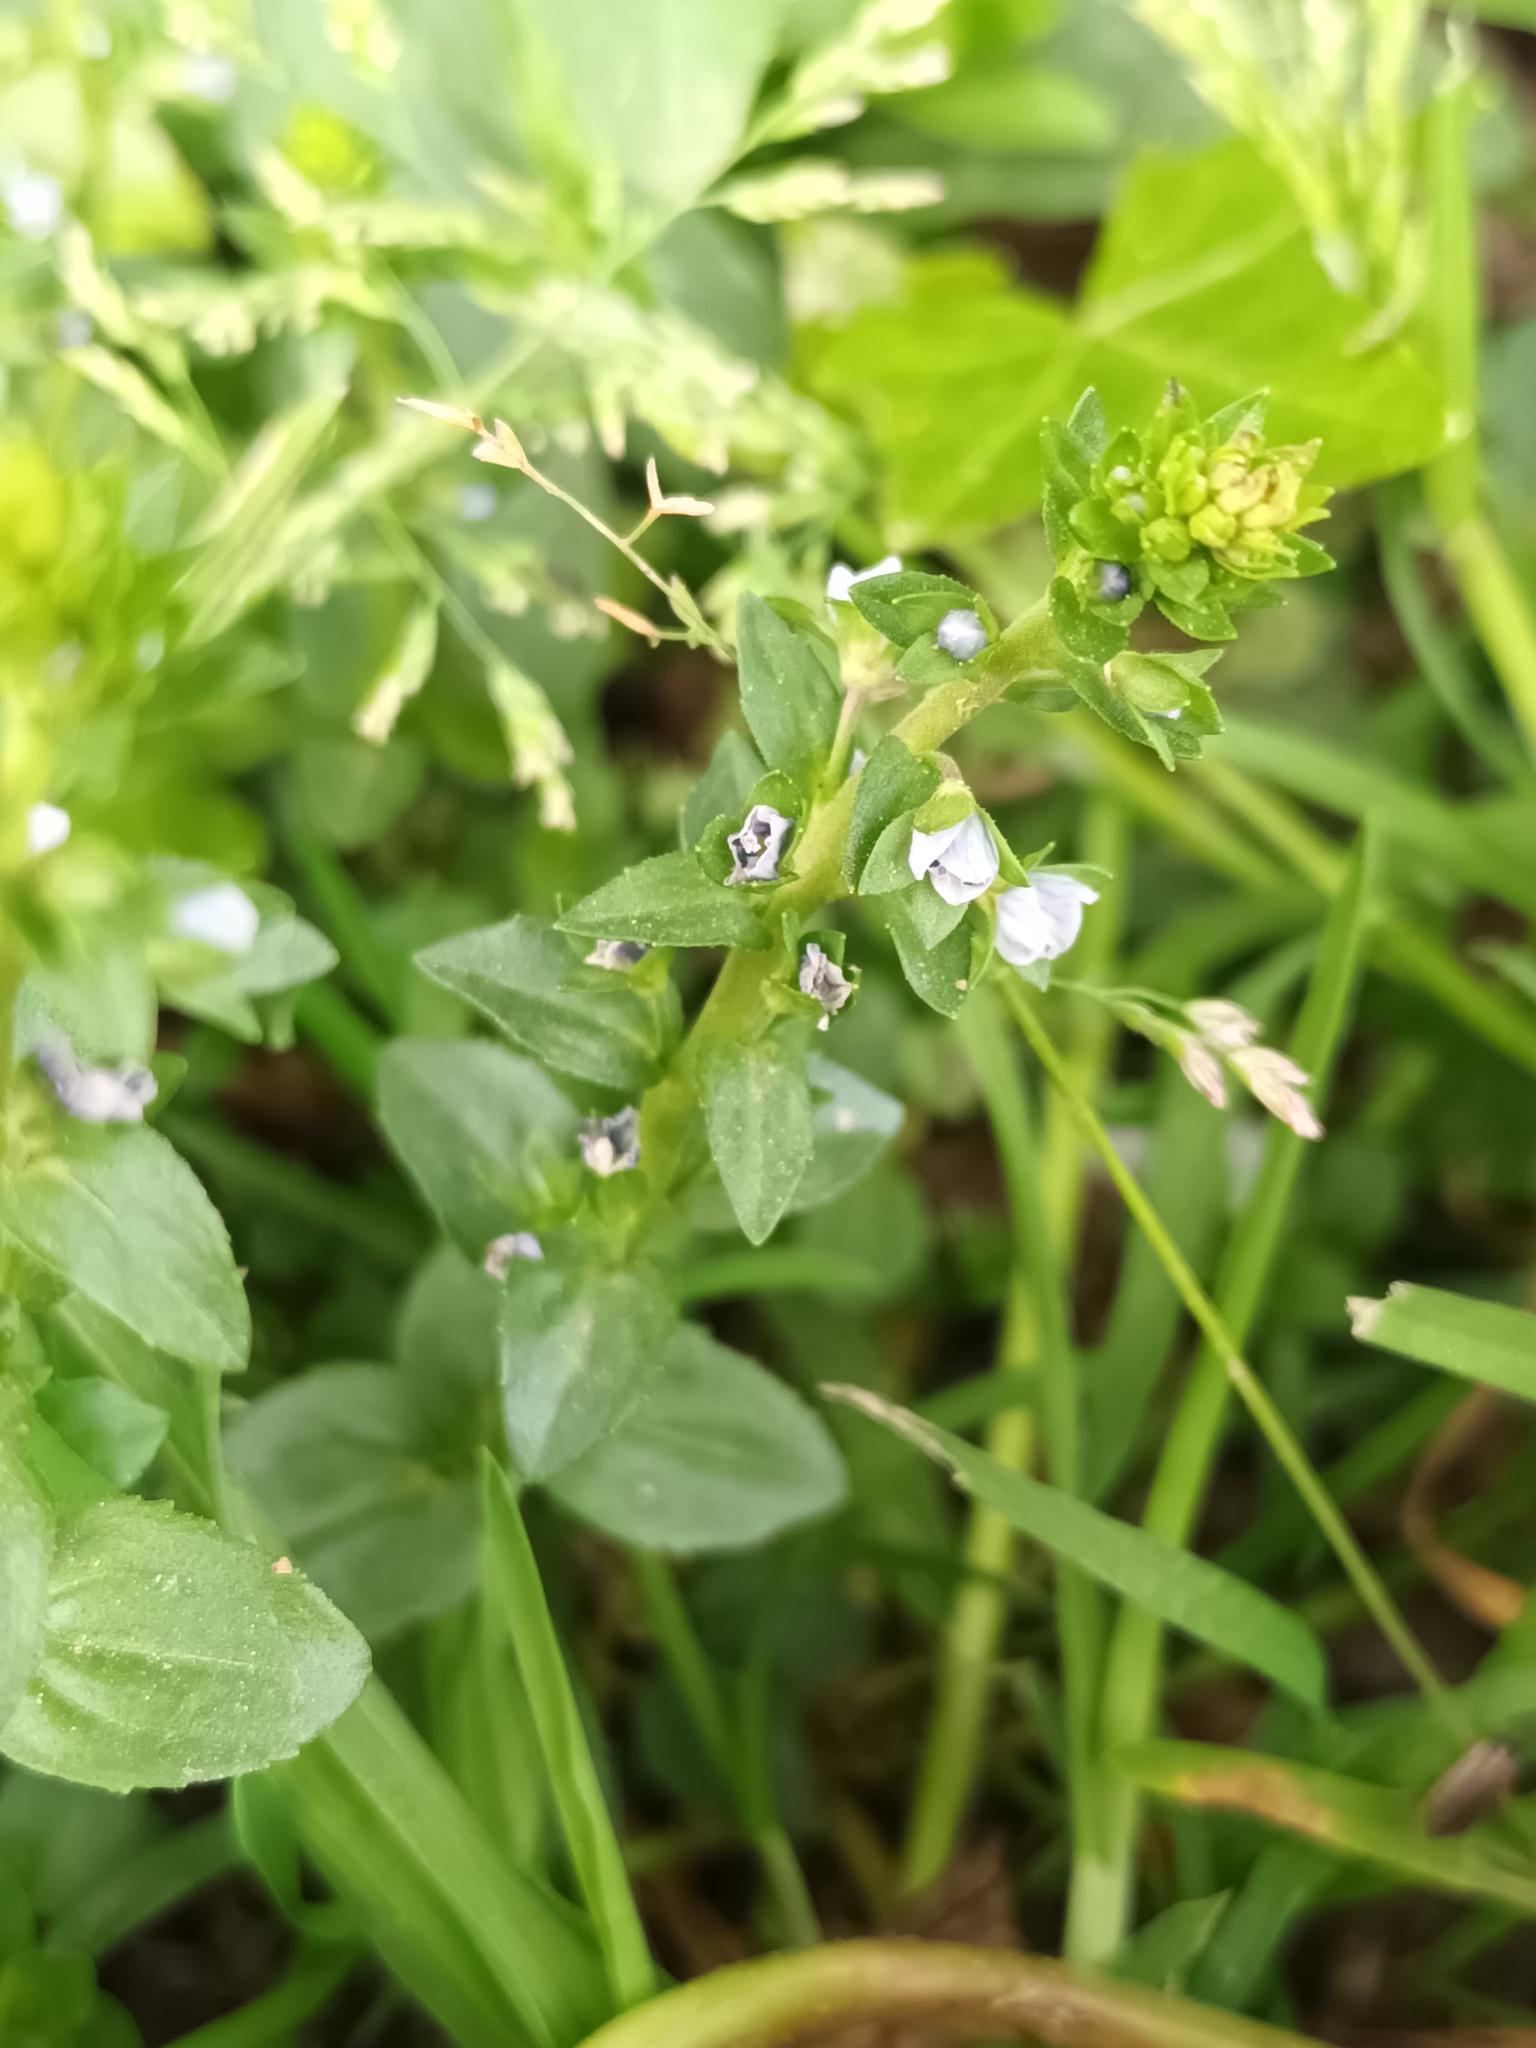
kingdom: Plantae
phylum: Tracheophyta
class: Magnoliopsida
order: Lamiales
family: Plantaginaceae
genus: Veronica
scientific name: Veronica serpyllifolia
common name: Thyme-leaved speedwell
